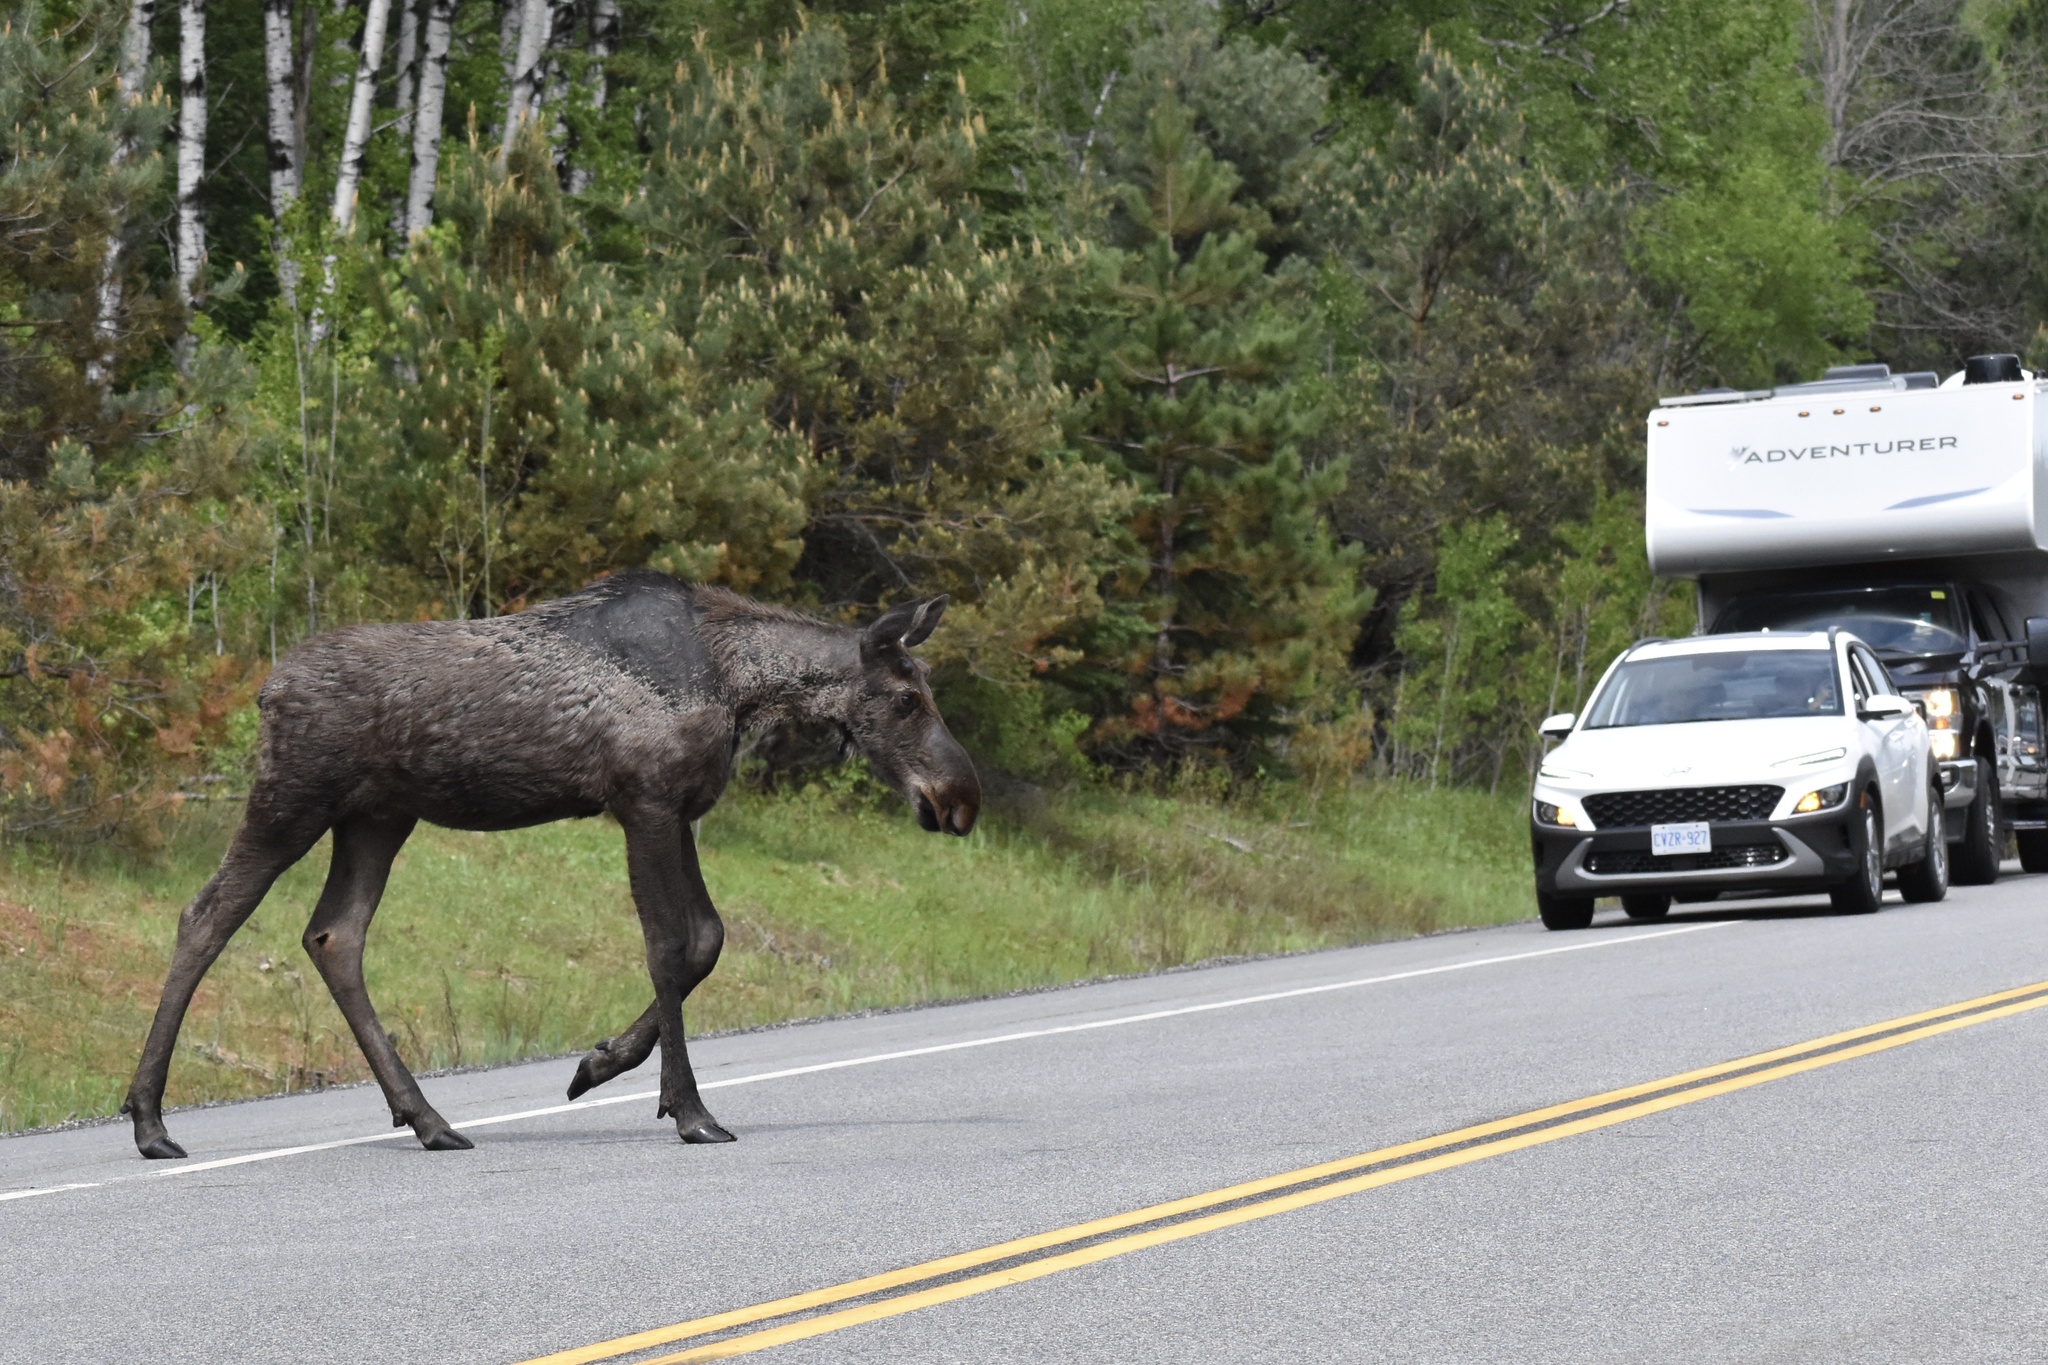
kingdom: Animalia
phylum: Chordata
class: Mammalia
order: Artiodactyla
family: Cervidae
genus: Alces
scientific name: Alces alces
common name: Moose
